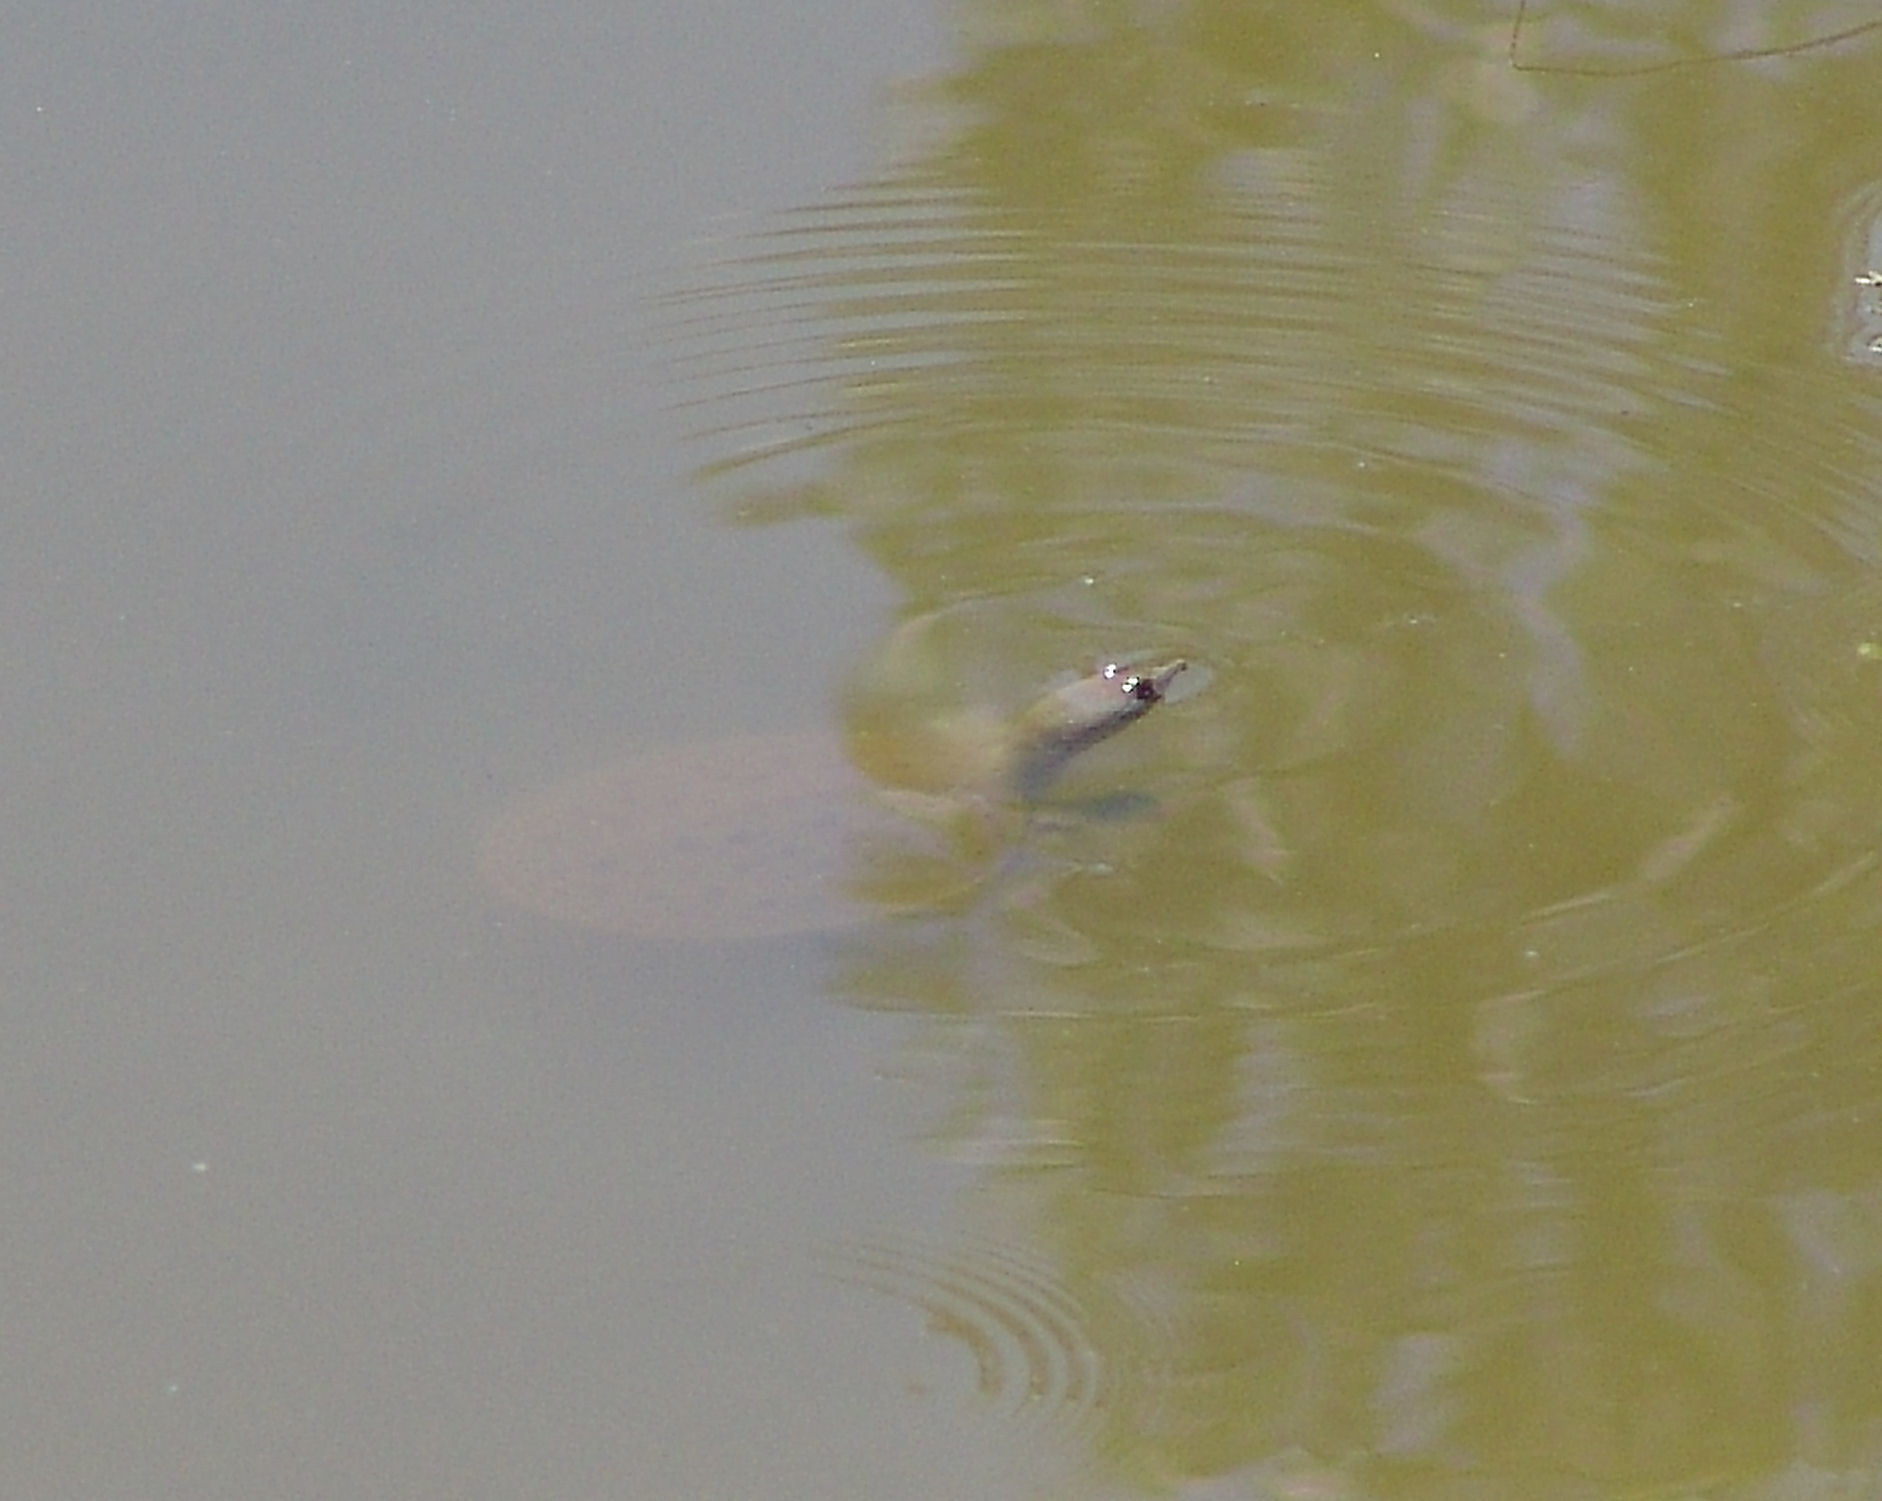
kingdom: Animalia
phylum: Chordata
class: Testudines
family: Trionychidae
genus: Apalone
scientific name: Apalone
